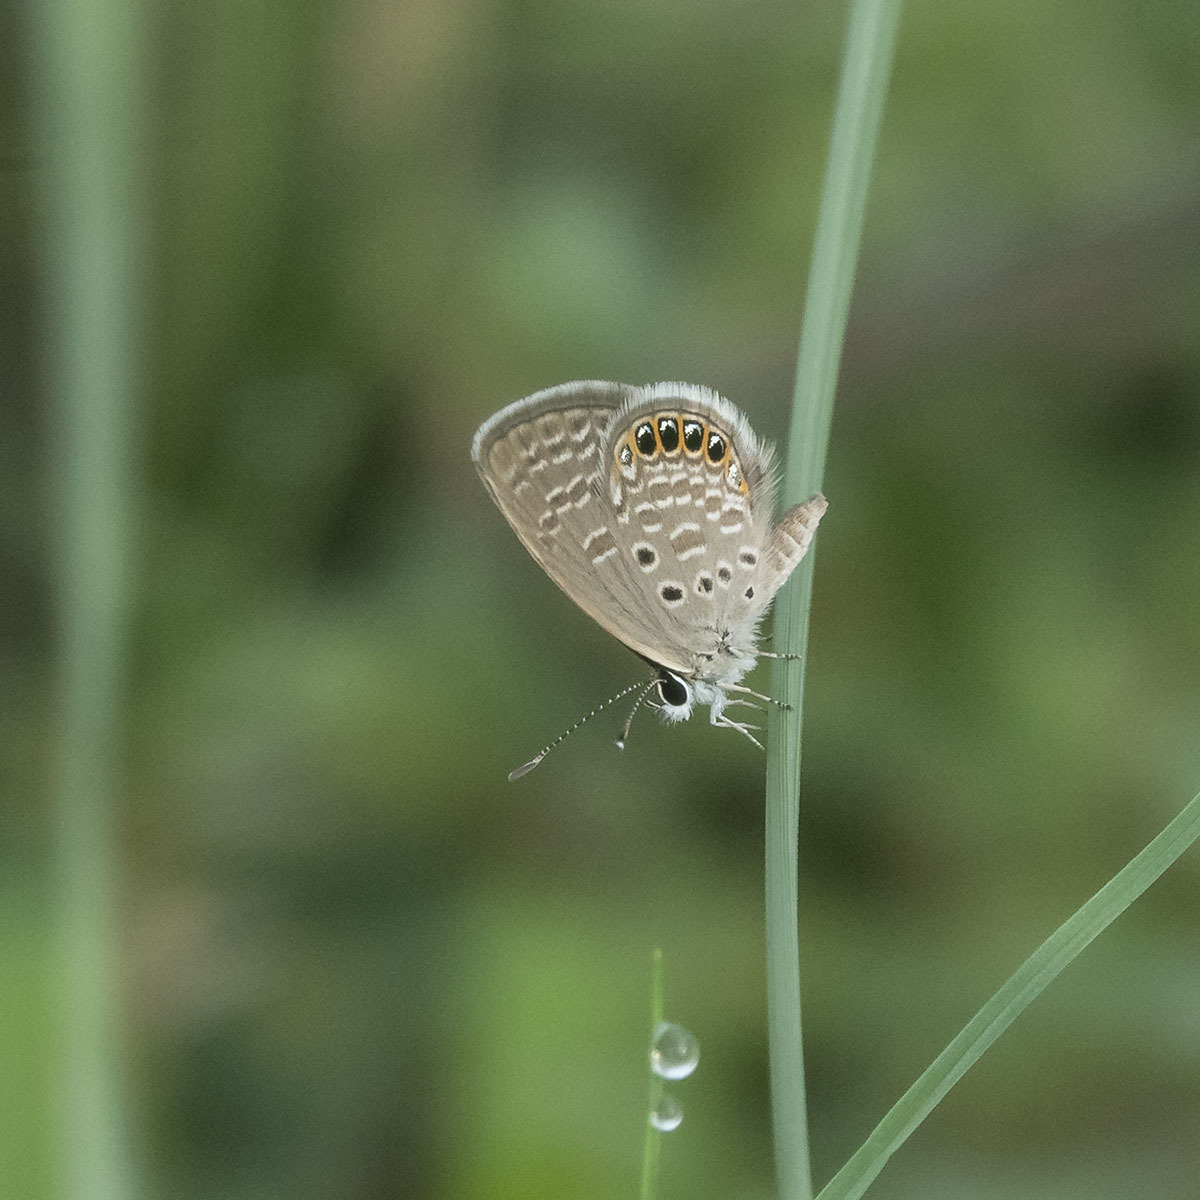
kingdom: Animalia
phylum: Arthropoda
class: Insecta
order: Lepidoptera
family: Lycaenidae
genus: Freyeria
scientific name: Freyeria putli
